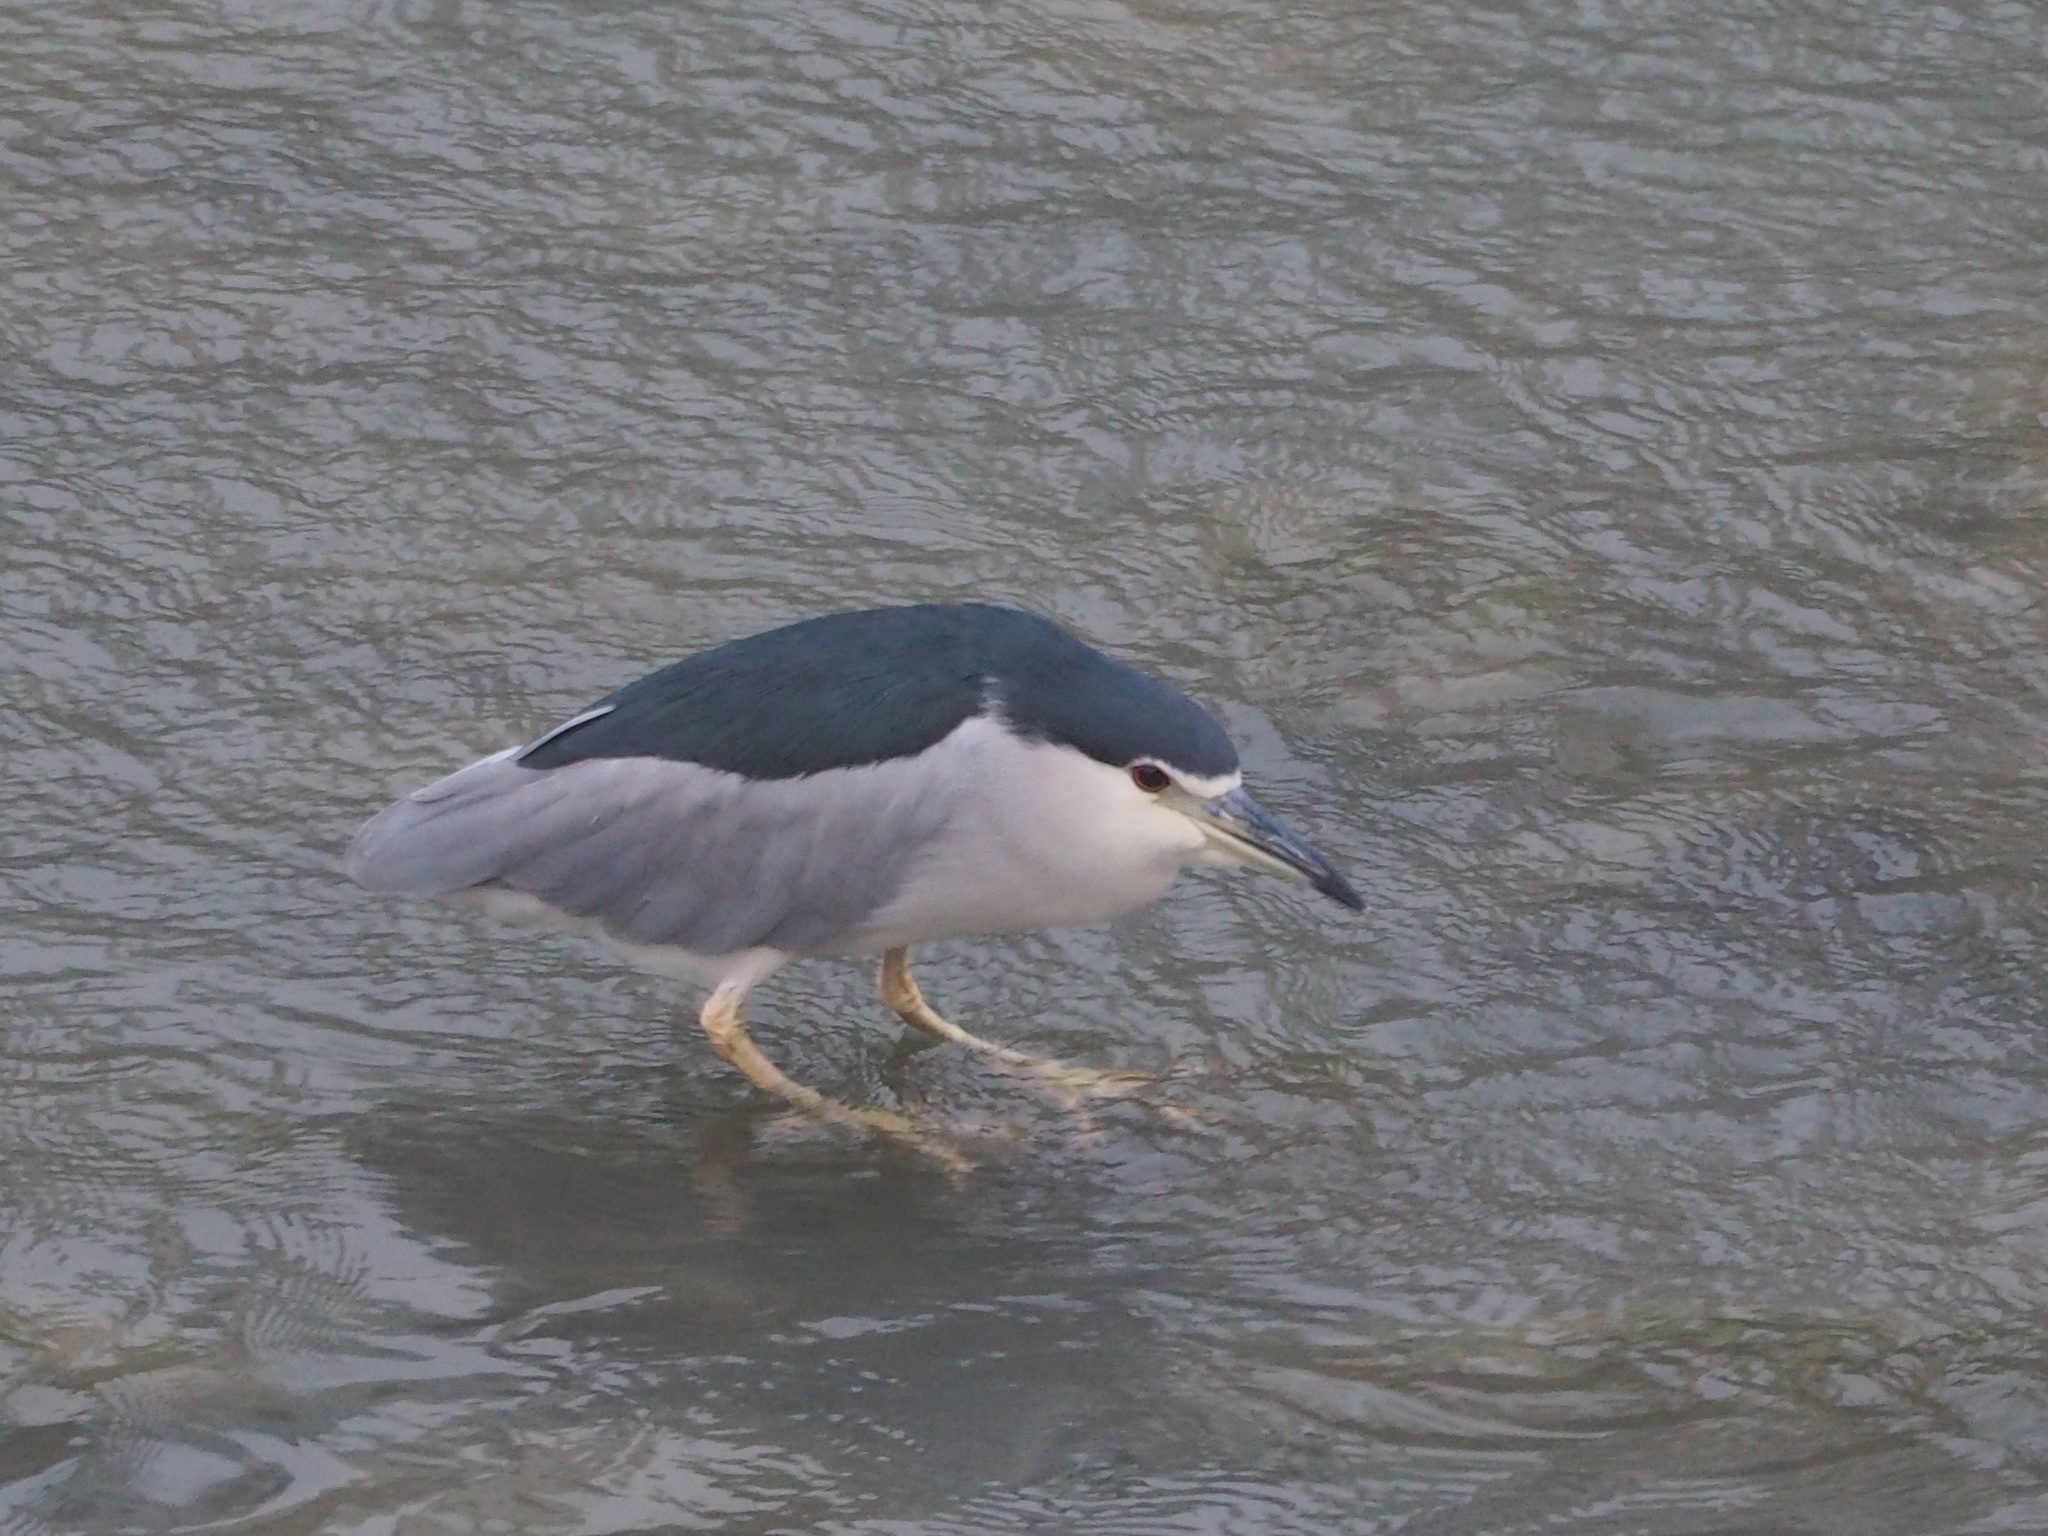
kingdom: Animalia
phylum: Chordata
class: Aves
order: Pelecaniformes
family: Ardeidae
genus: Nycticorax
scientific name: Nycticorax nycticorax
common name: Black-crowned night heron
